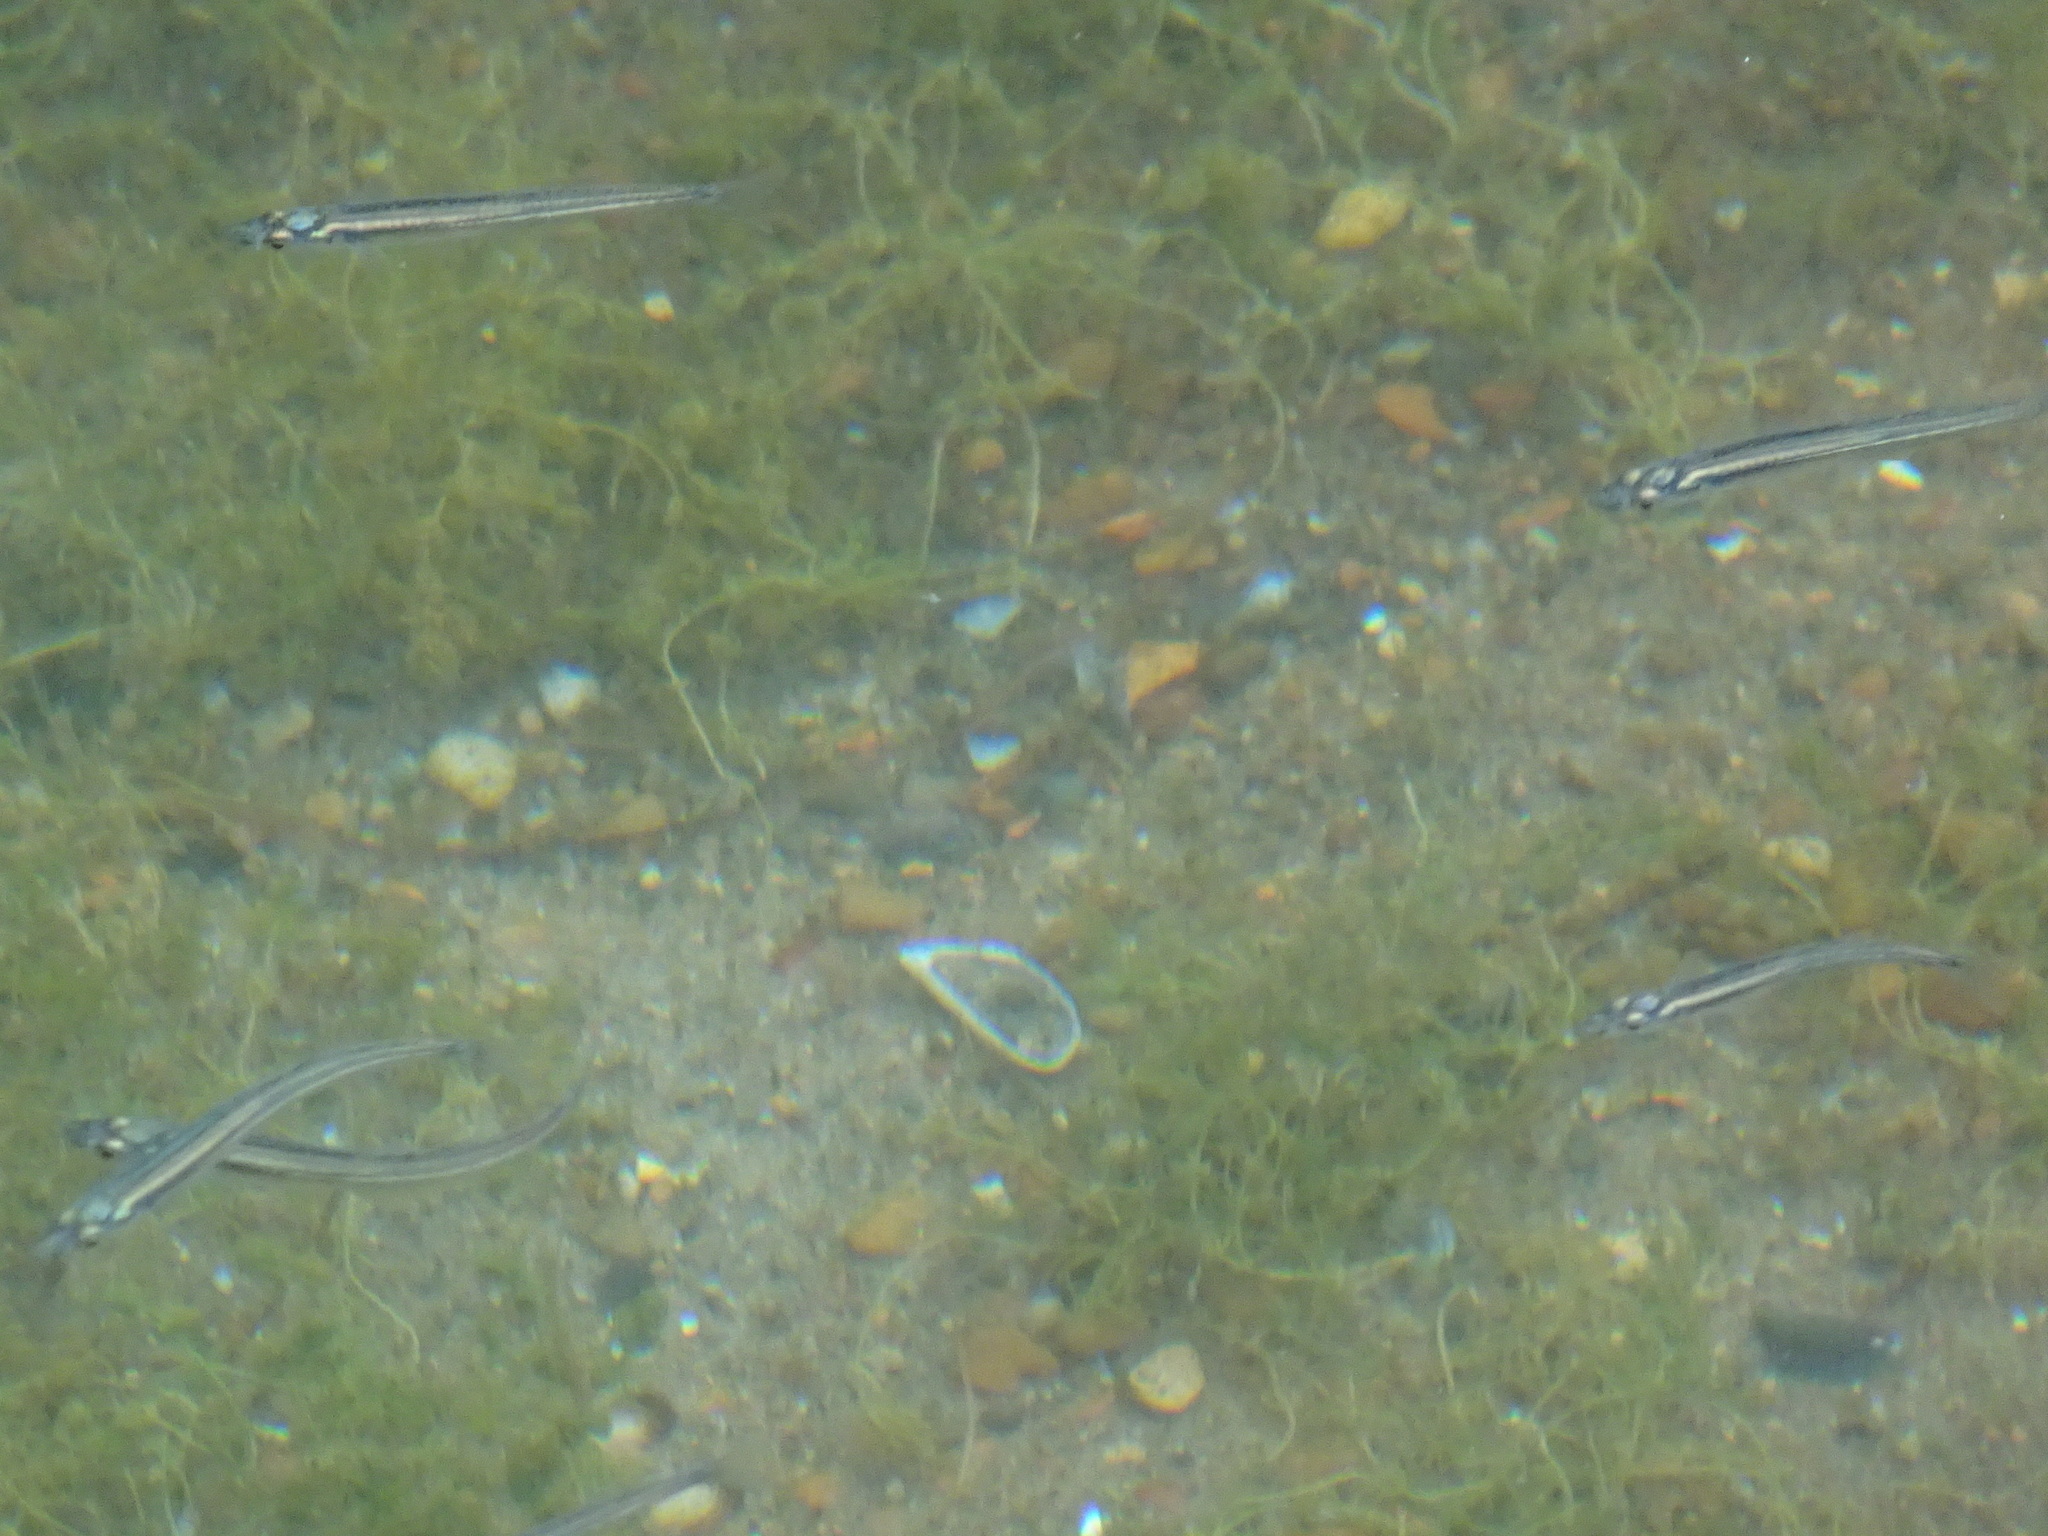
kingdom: Animalia
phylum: Chordata
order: Atheriniformes
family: Atherinopsidae
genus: Labidesthes
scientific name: Labidesthes sicculus
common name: Brook silverside
